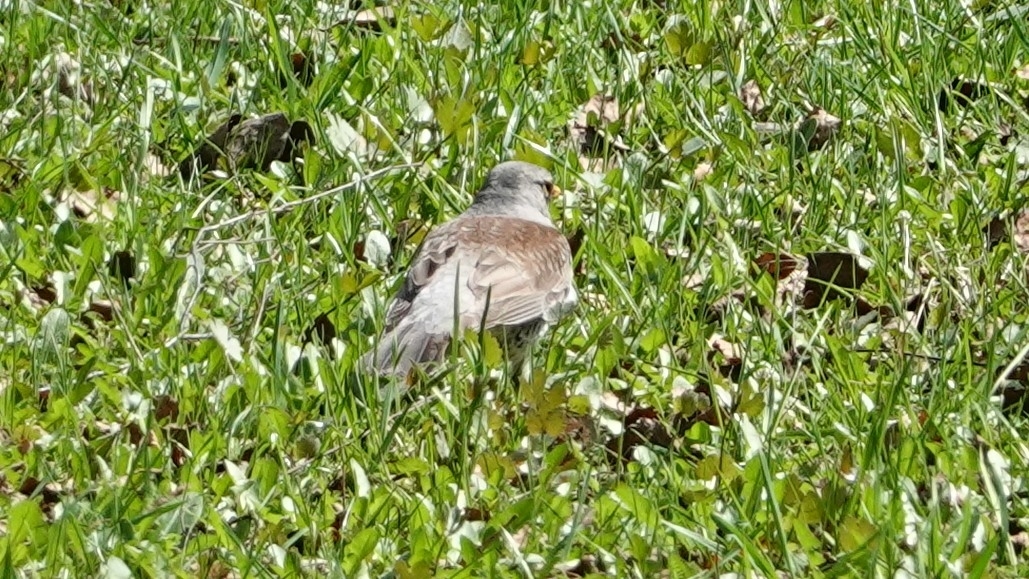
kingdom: Animalia
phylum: Chordata
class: Aves
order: Passeriformes
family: Turdidae
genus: Turdus
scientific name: Turdus pilaris
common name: Fieldfare
